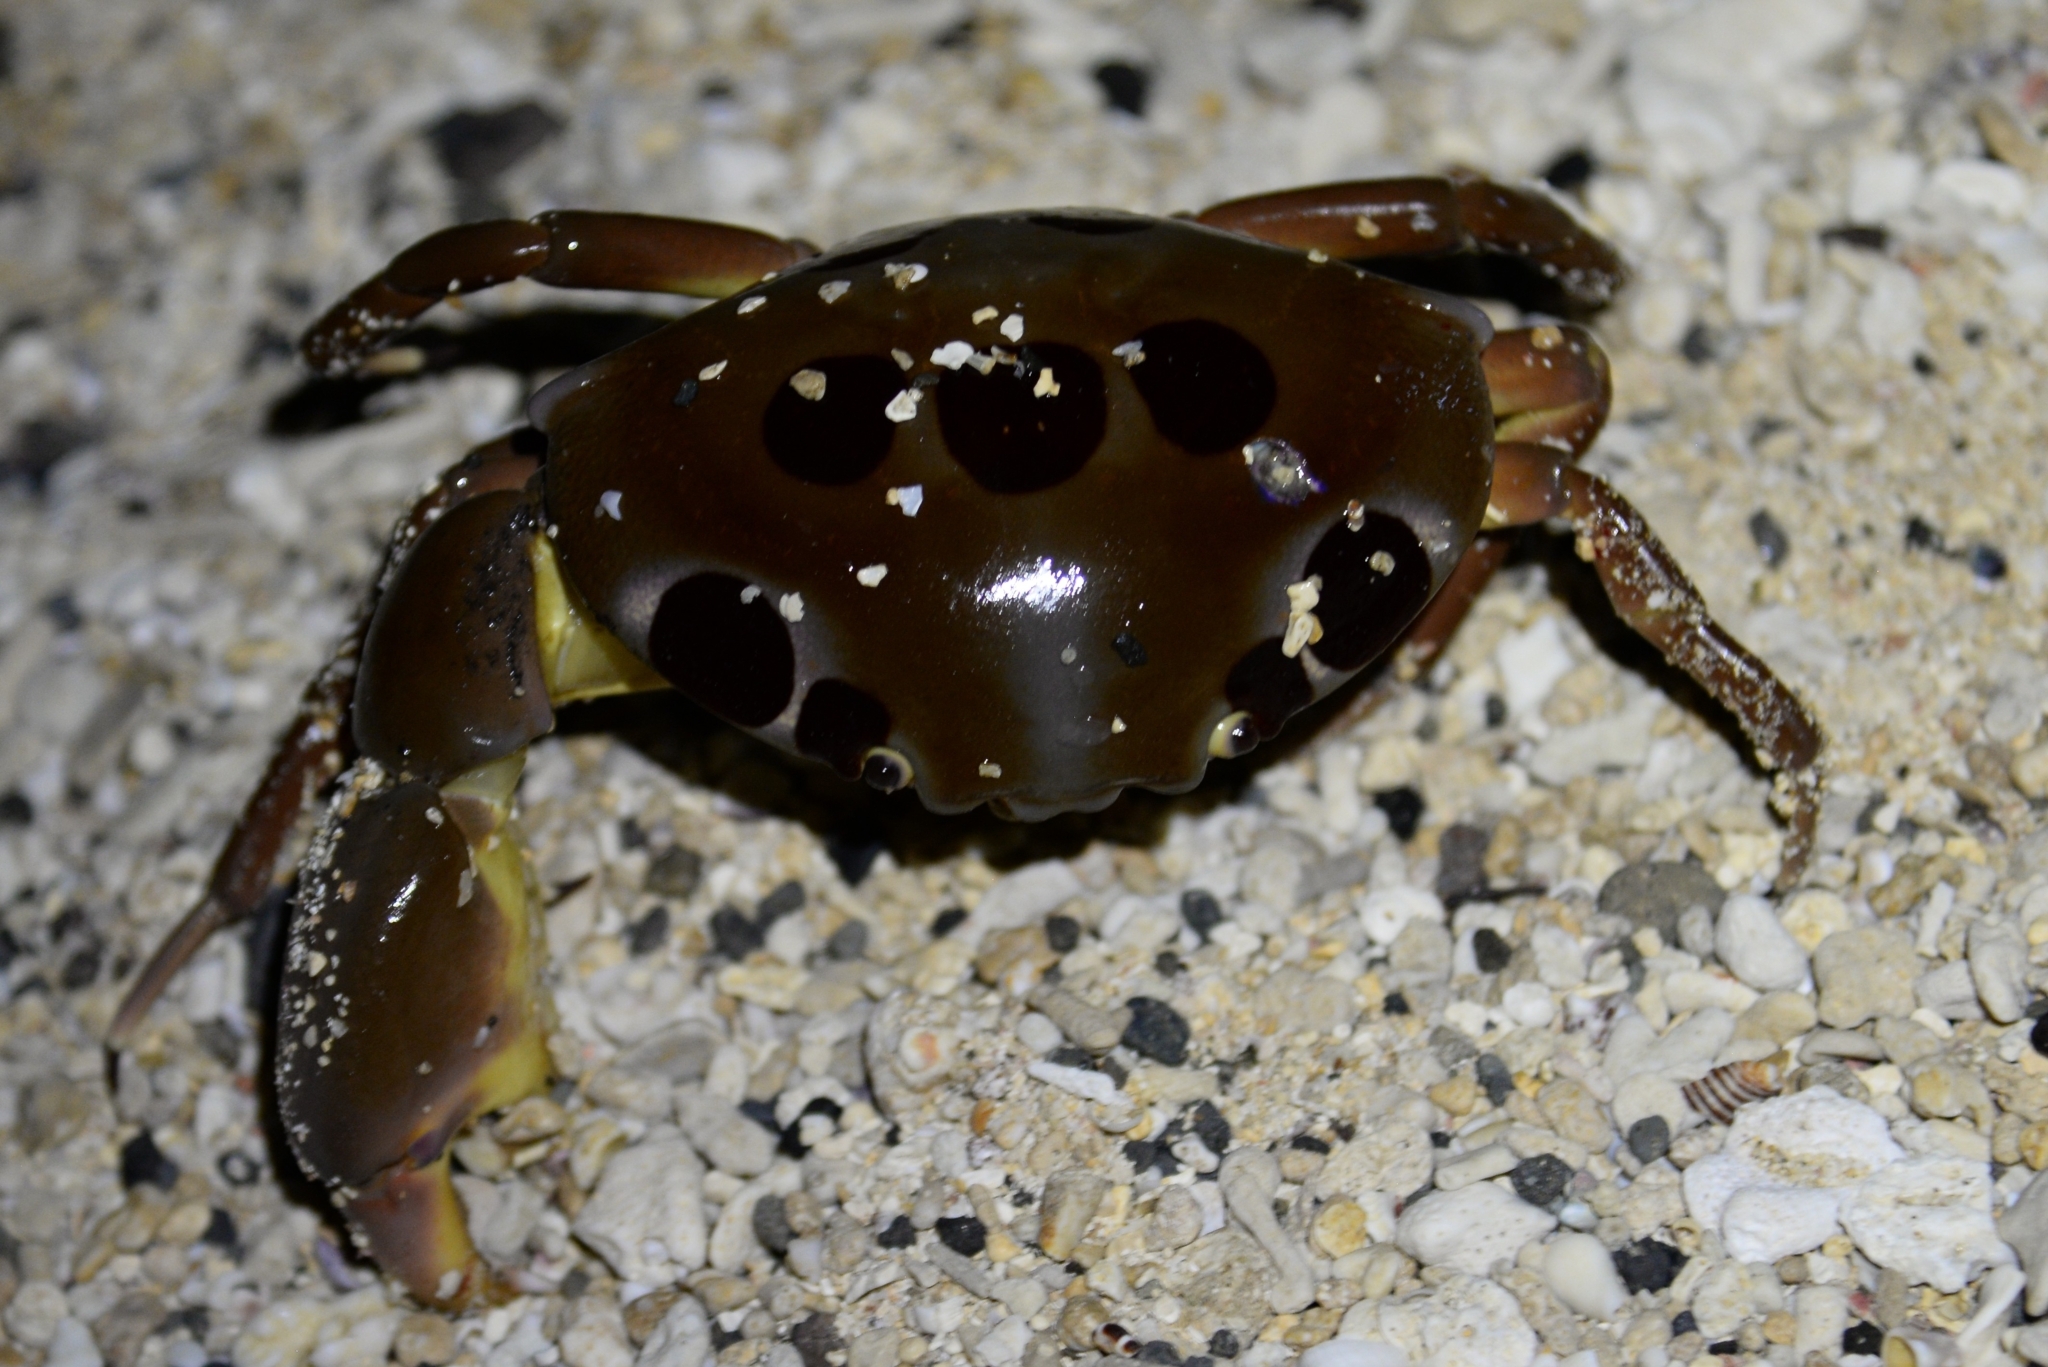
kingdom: Animalia
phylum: Arthropoda
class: Malacostraca
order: Decapoda
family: Carpiliidae
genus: Carpilius
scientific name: Carpilius maculatus
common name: Spotted reef crab
